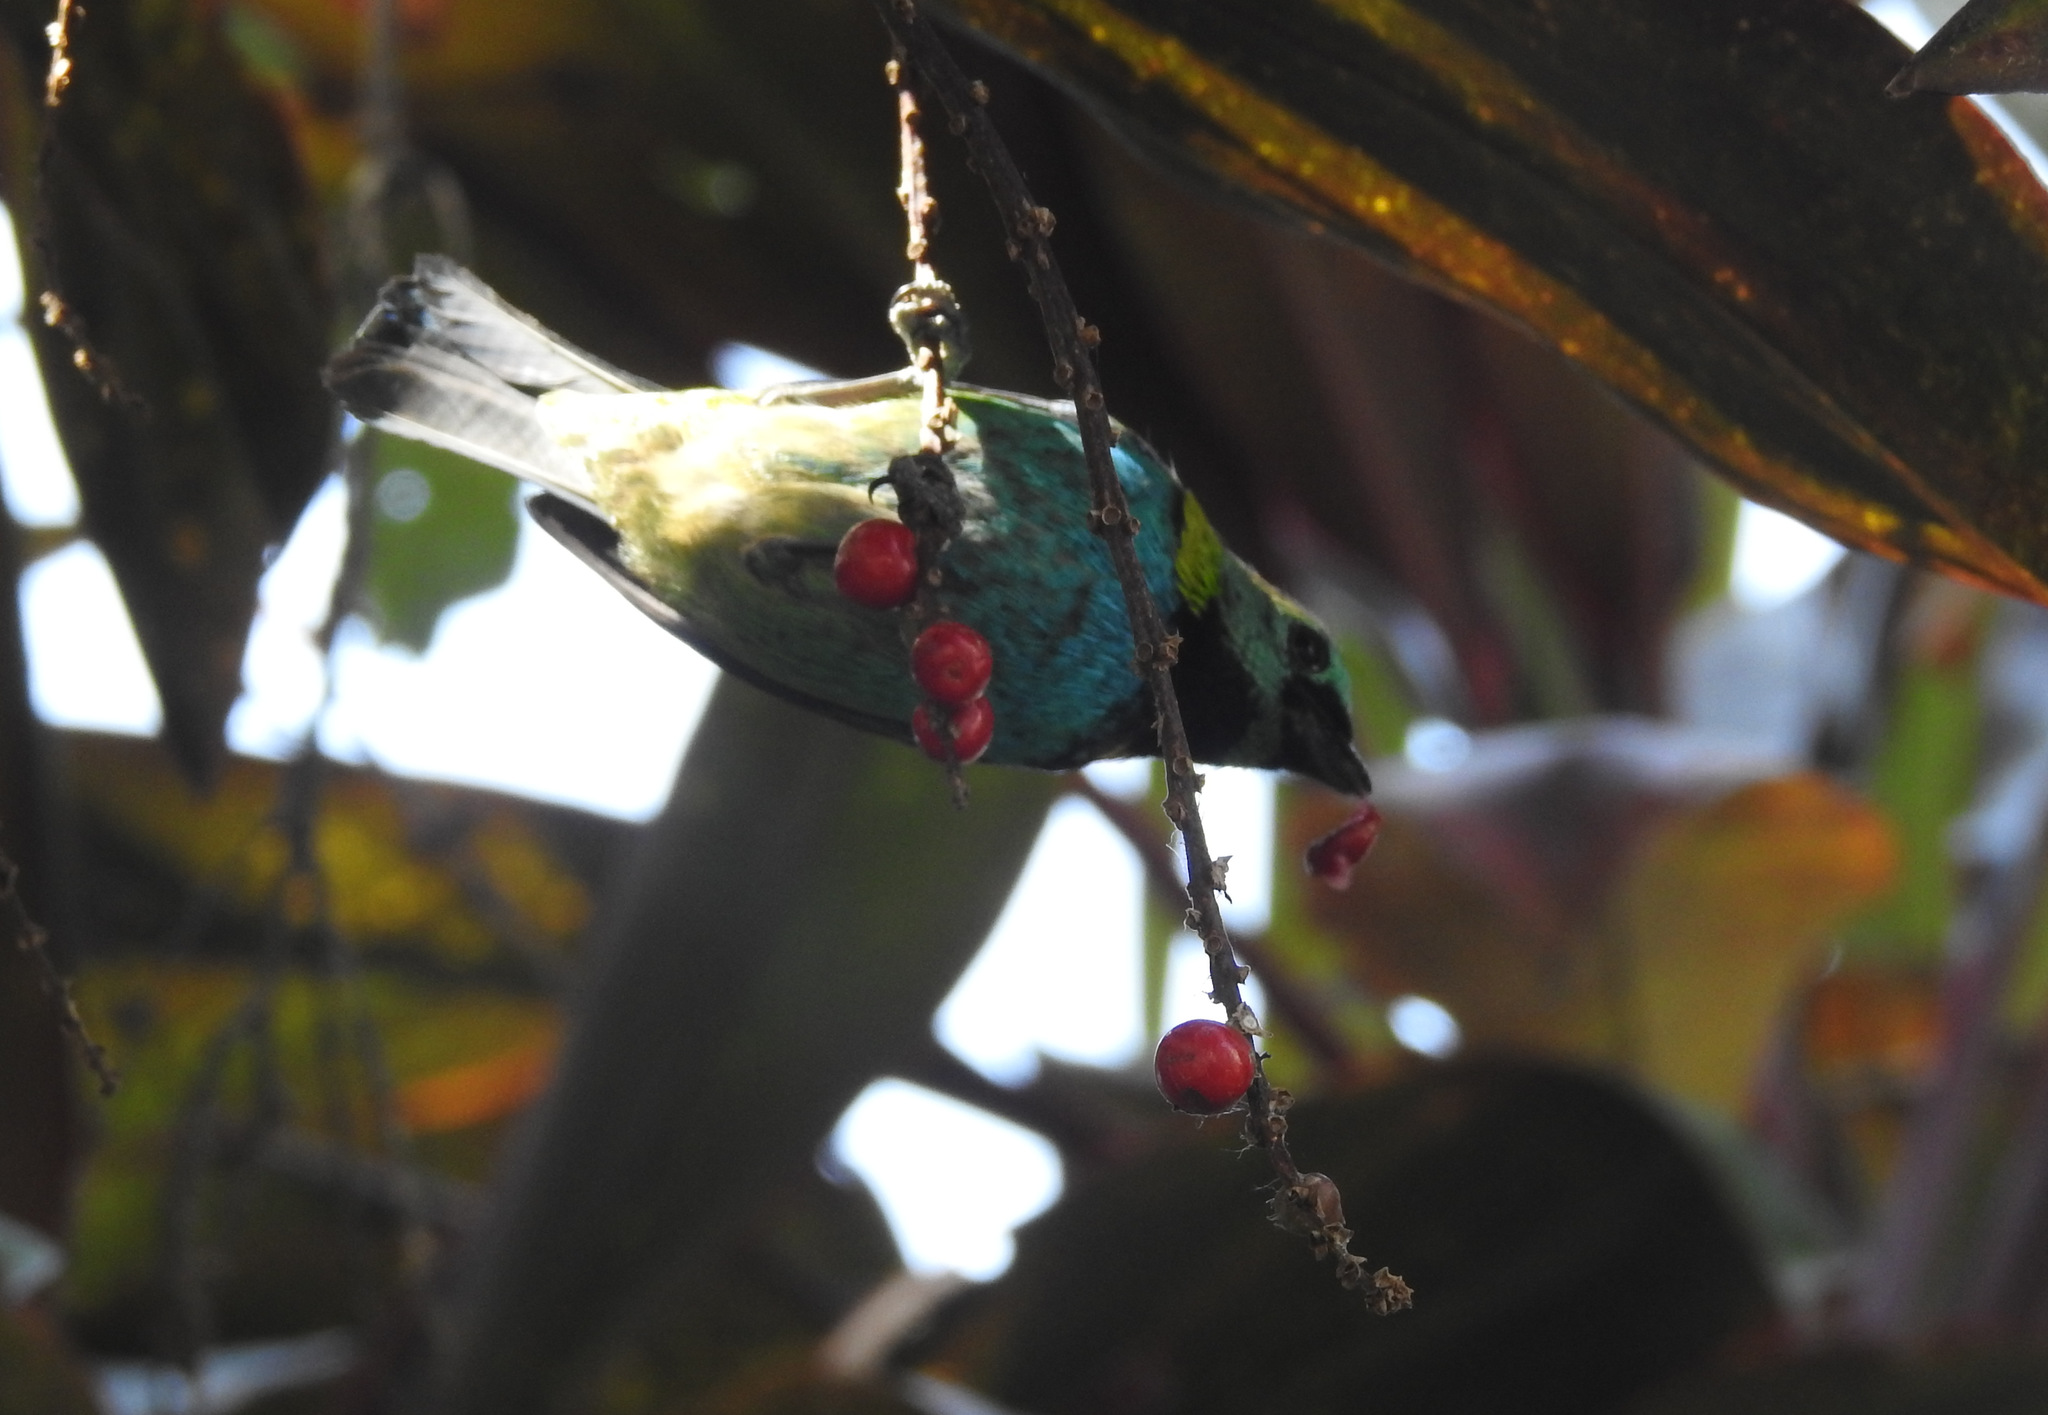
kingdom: Animalia
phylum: Chordata
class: Aves
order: Passeriformes
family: Thraupidae
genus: Tangara
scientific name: Tangara seledon
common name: Green-headed tanager
